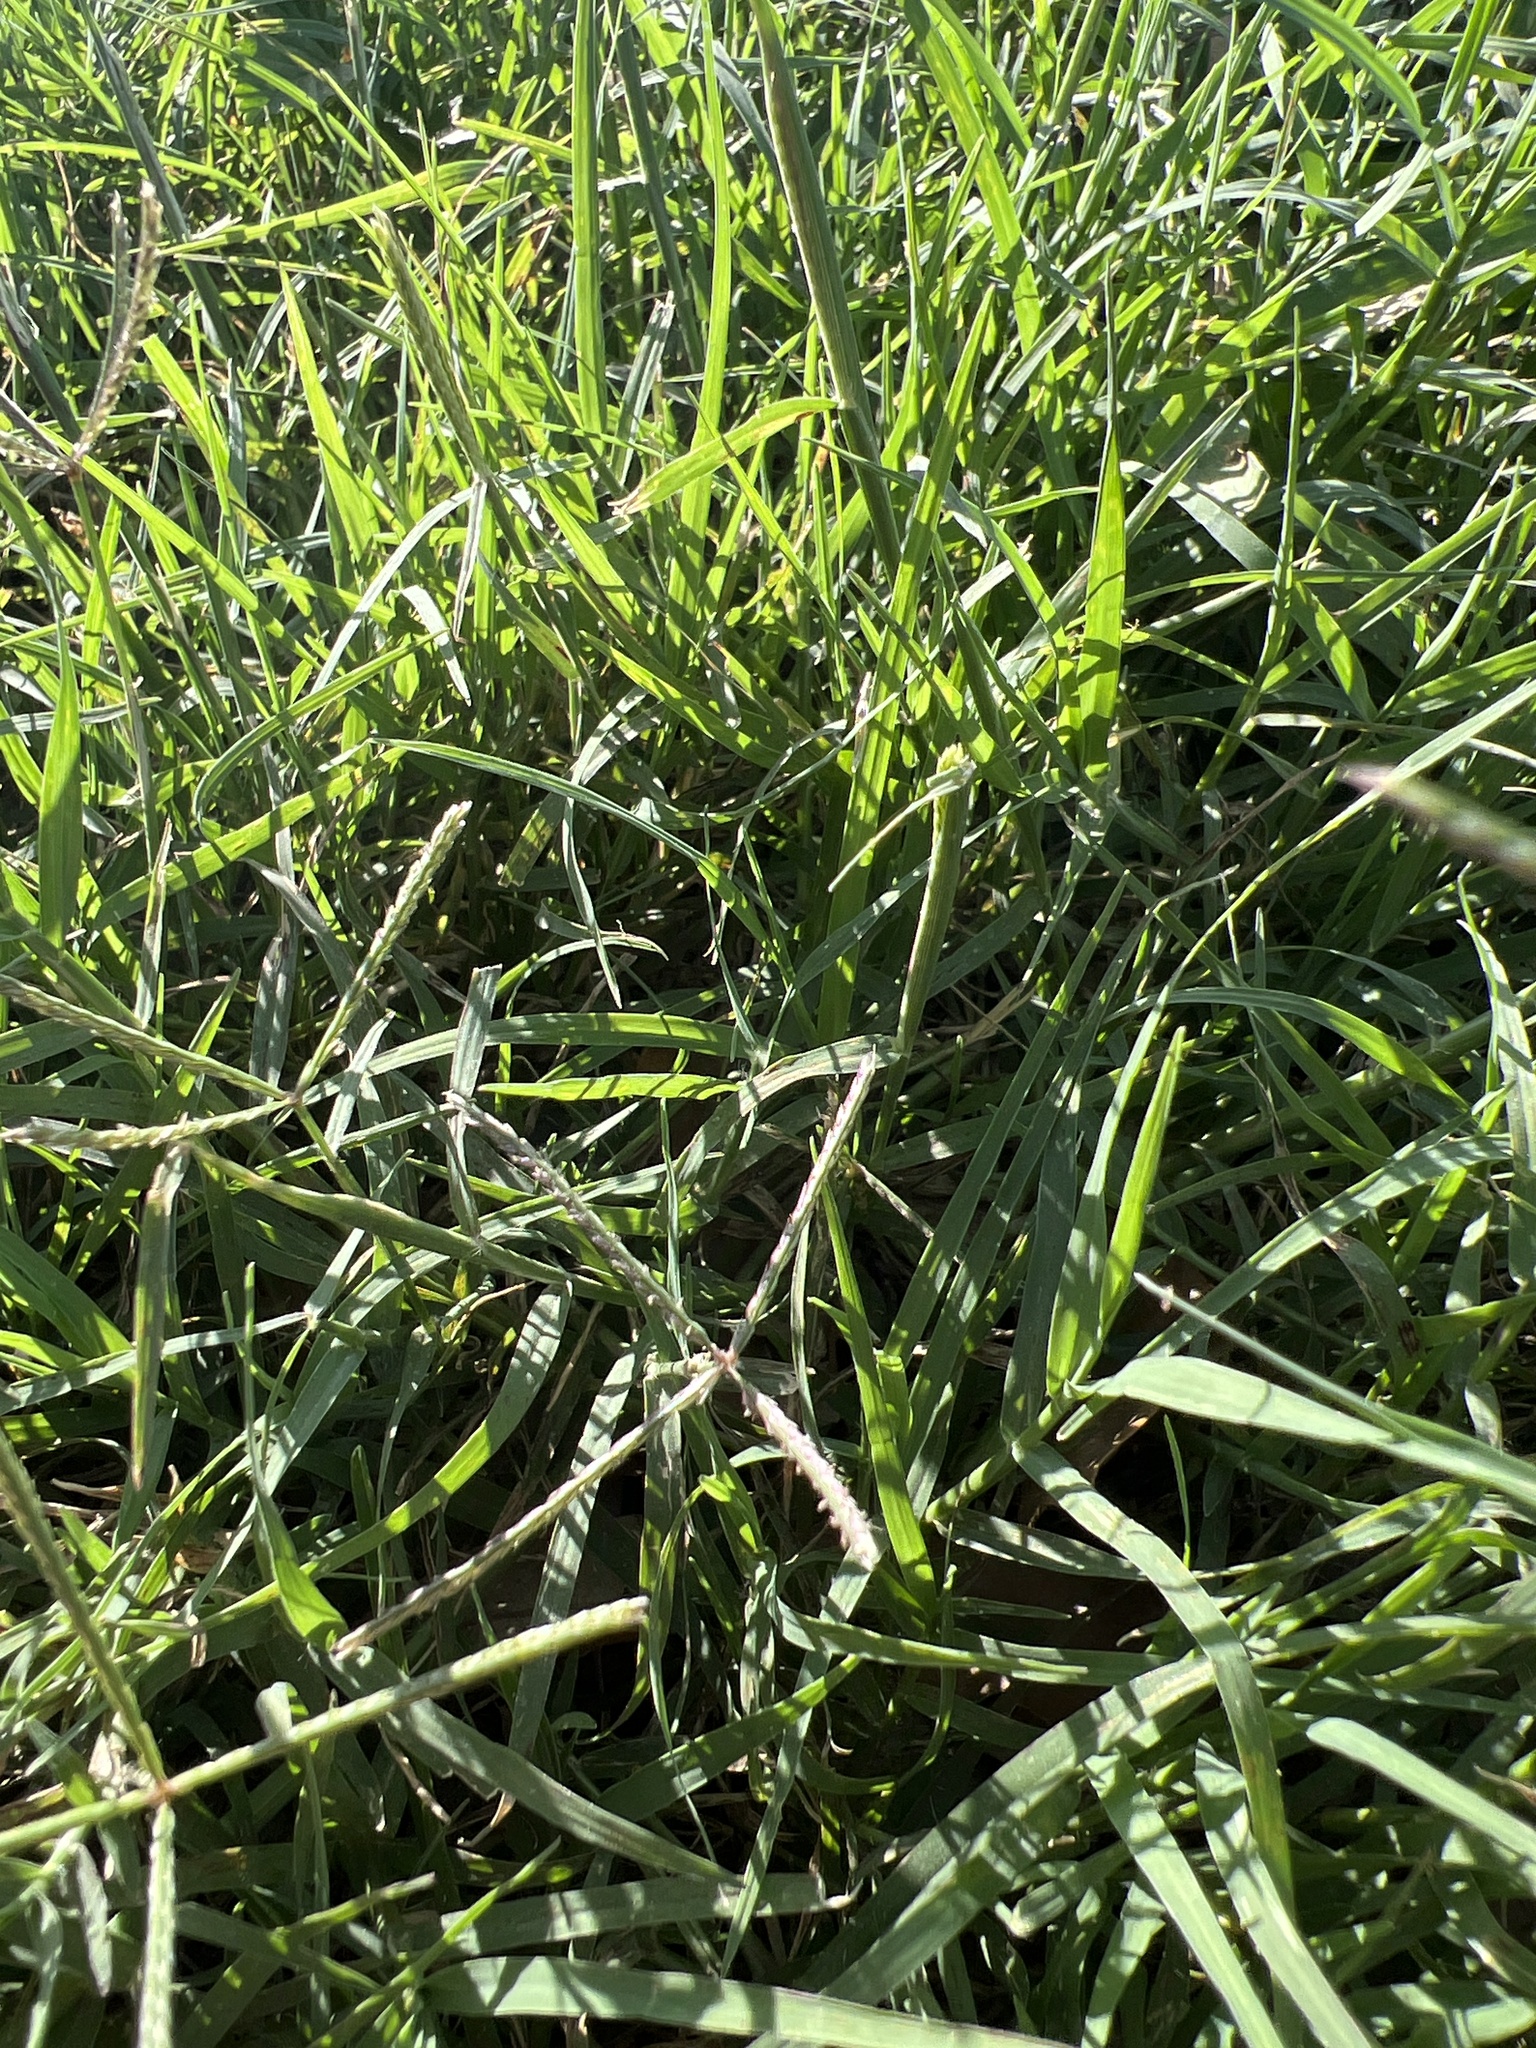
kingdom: Plantae
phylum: Tracheophyta
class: Liliopsida
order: Poales
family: Poaceae
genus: Cynodon
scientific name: Cynodon dactylon
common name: Bermuda grass
